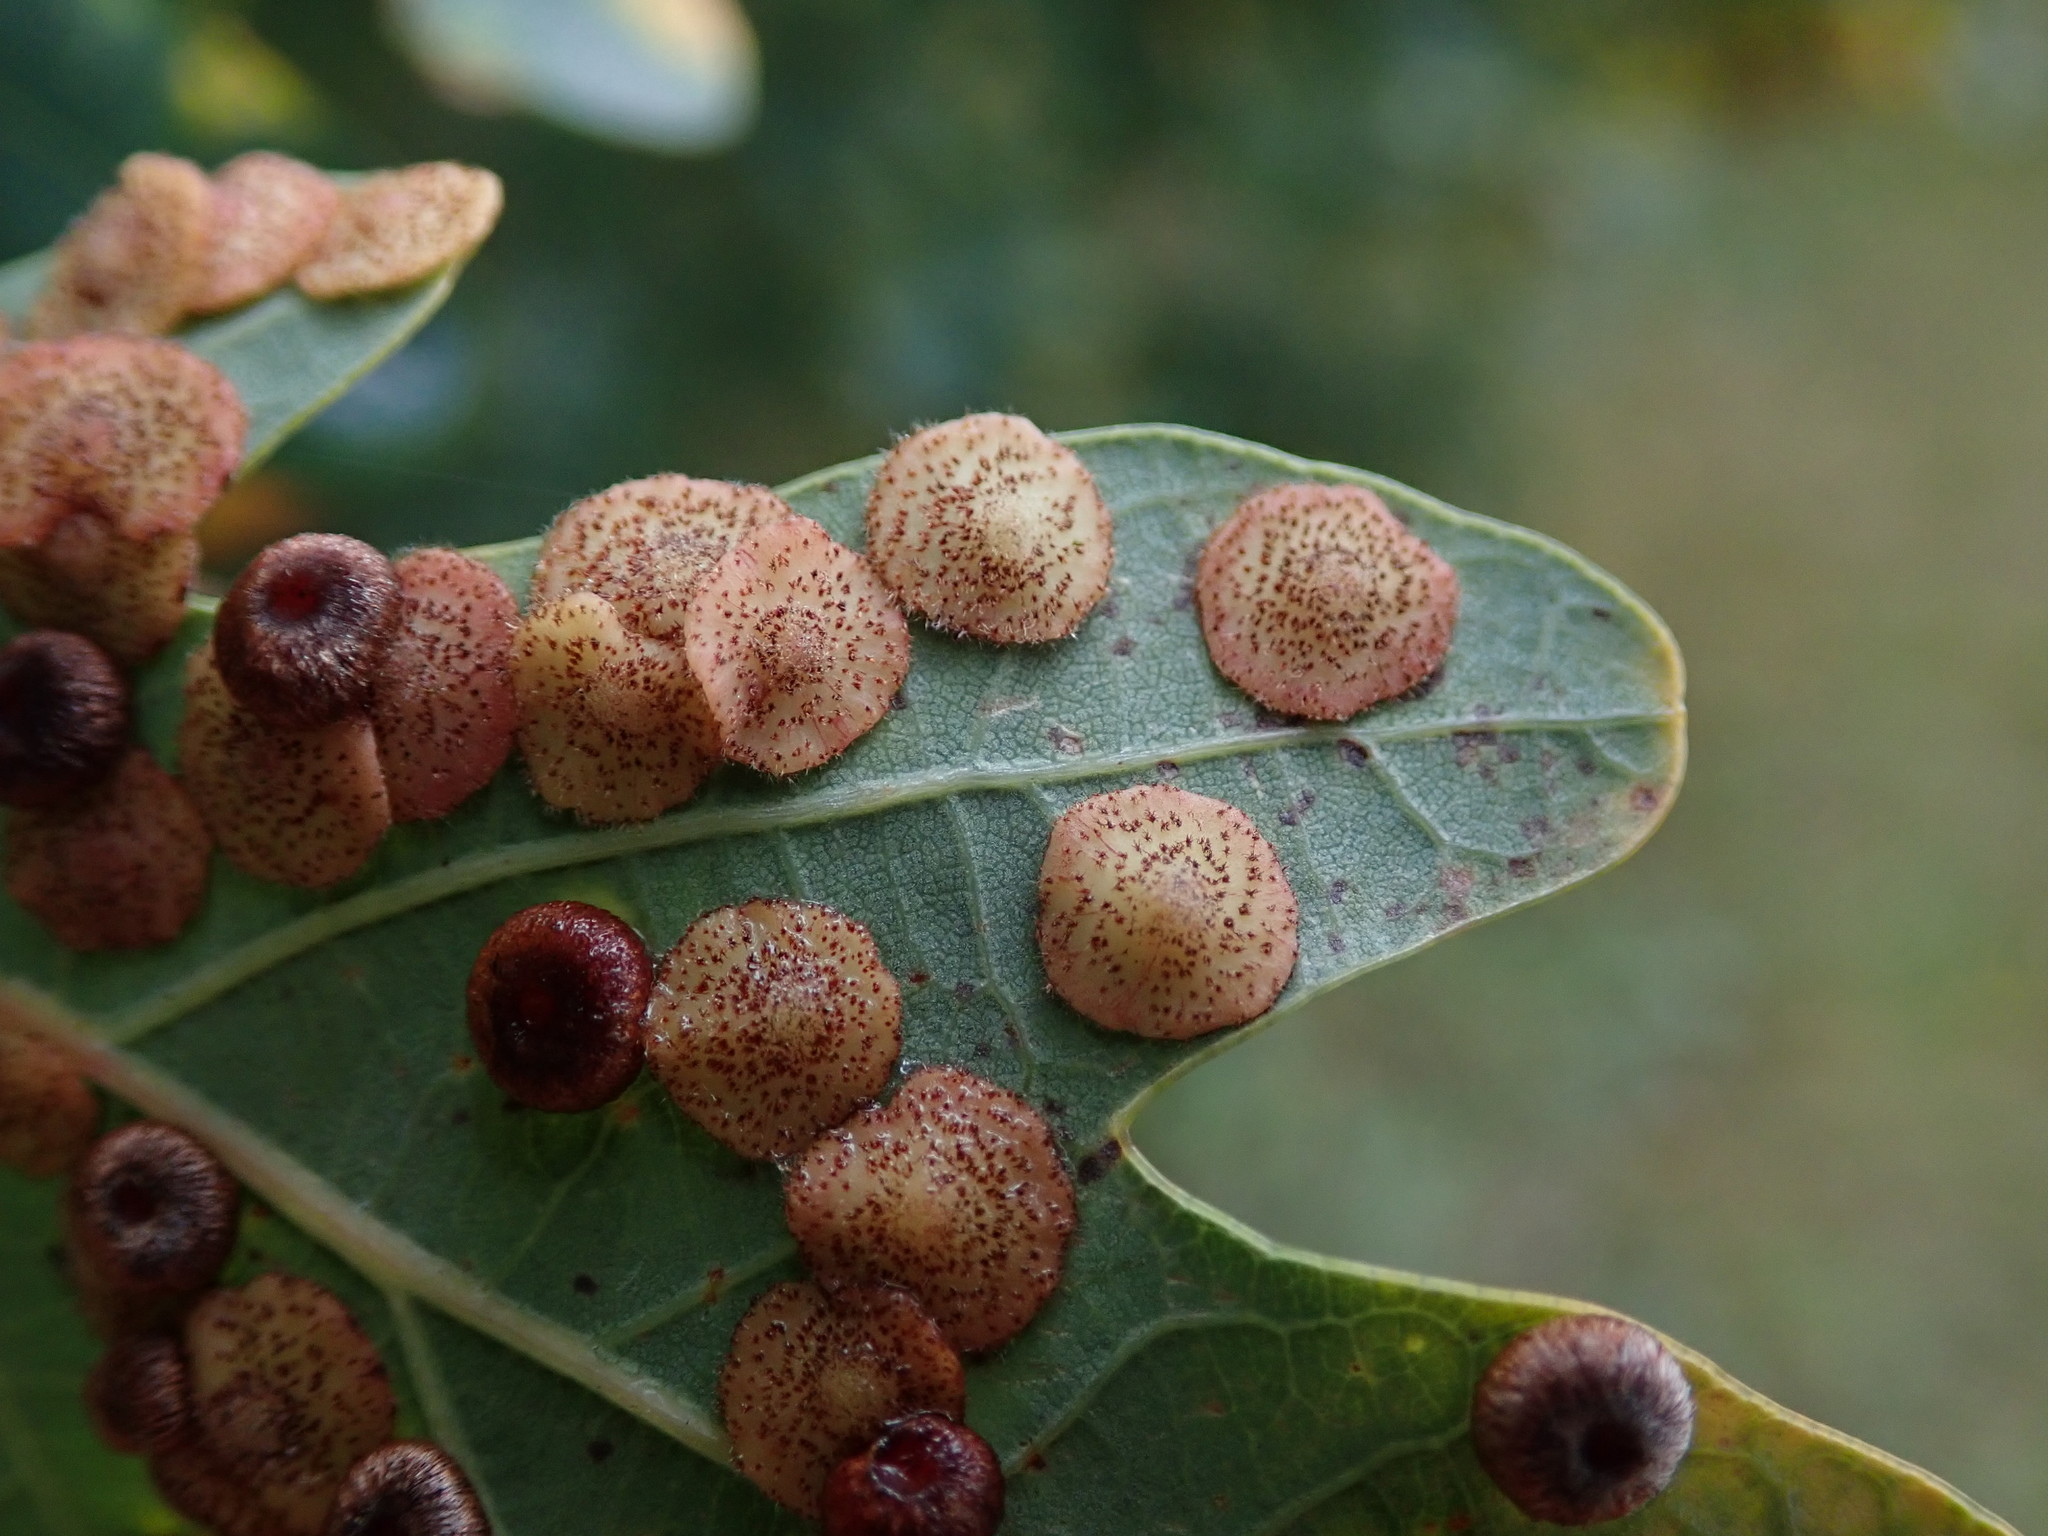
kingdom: Animalia
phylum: Arthropoda
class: Insecta
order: Hymenoptera
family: Cynipidae
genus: Neuroterus
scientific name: Neuroterus quercusbaccarum
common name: Common spangle gall
